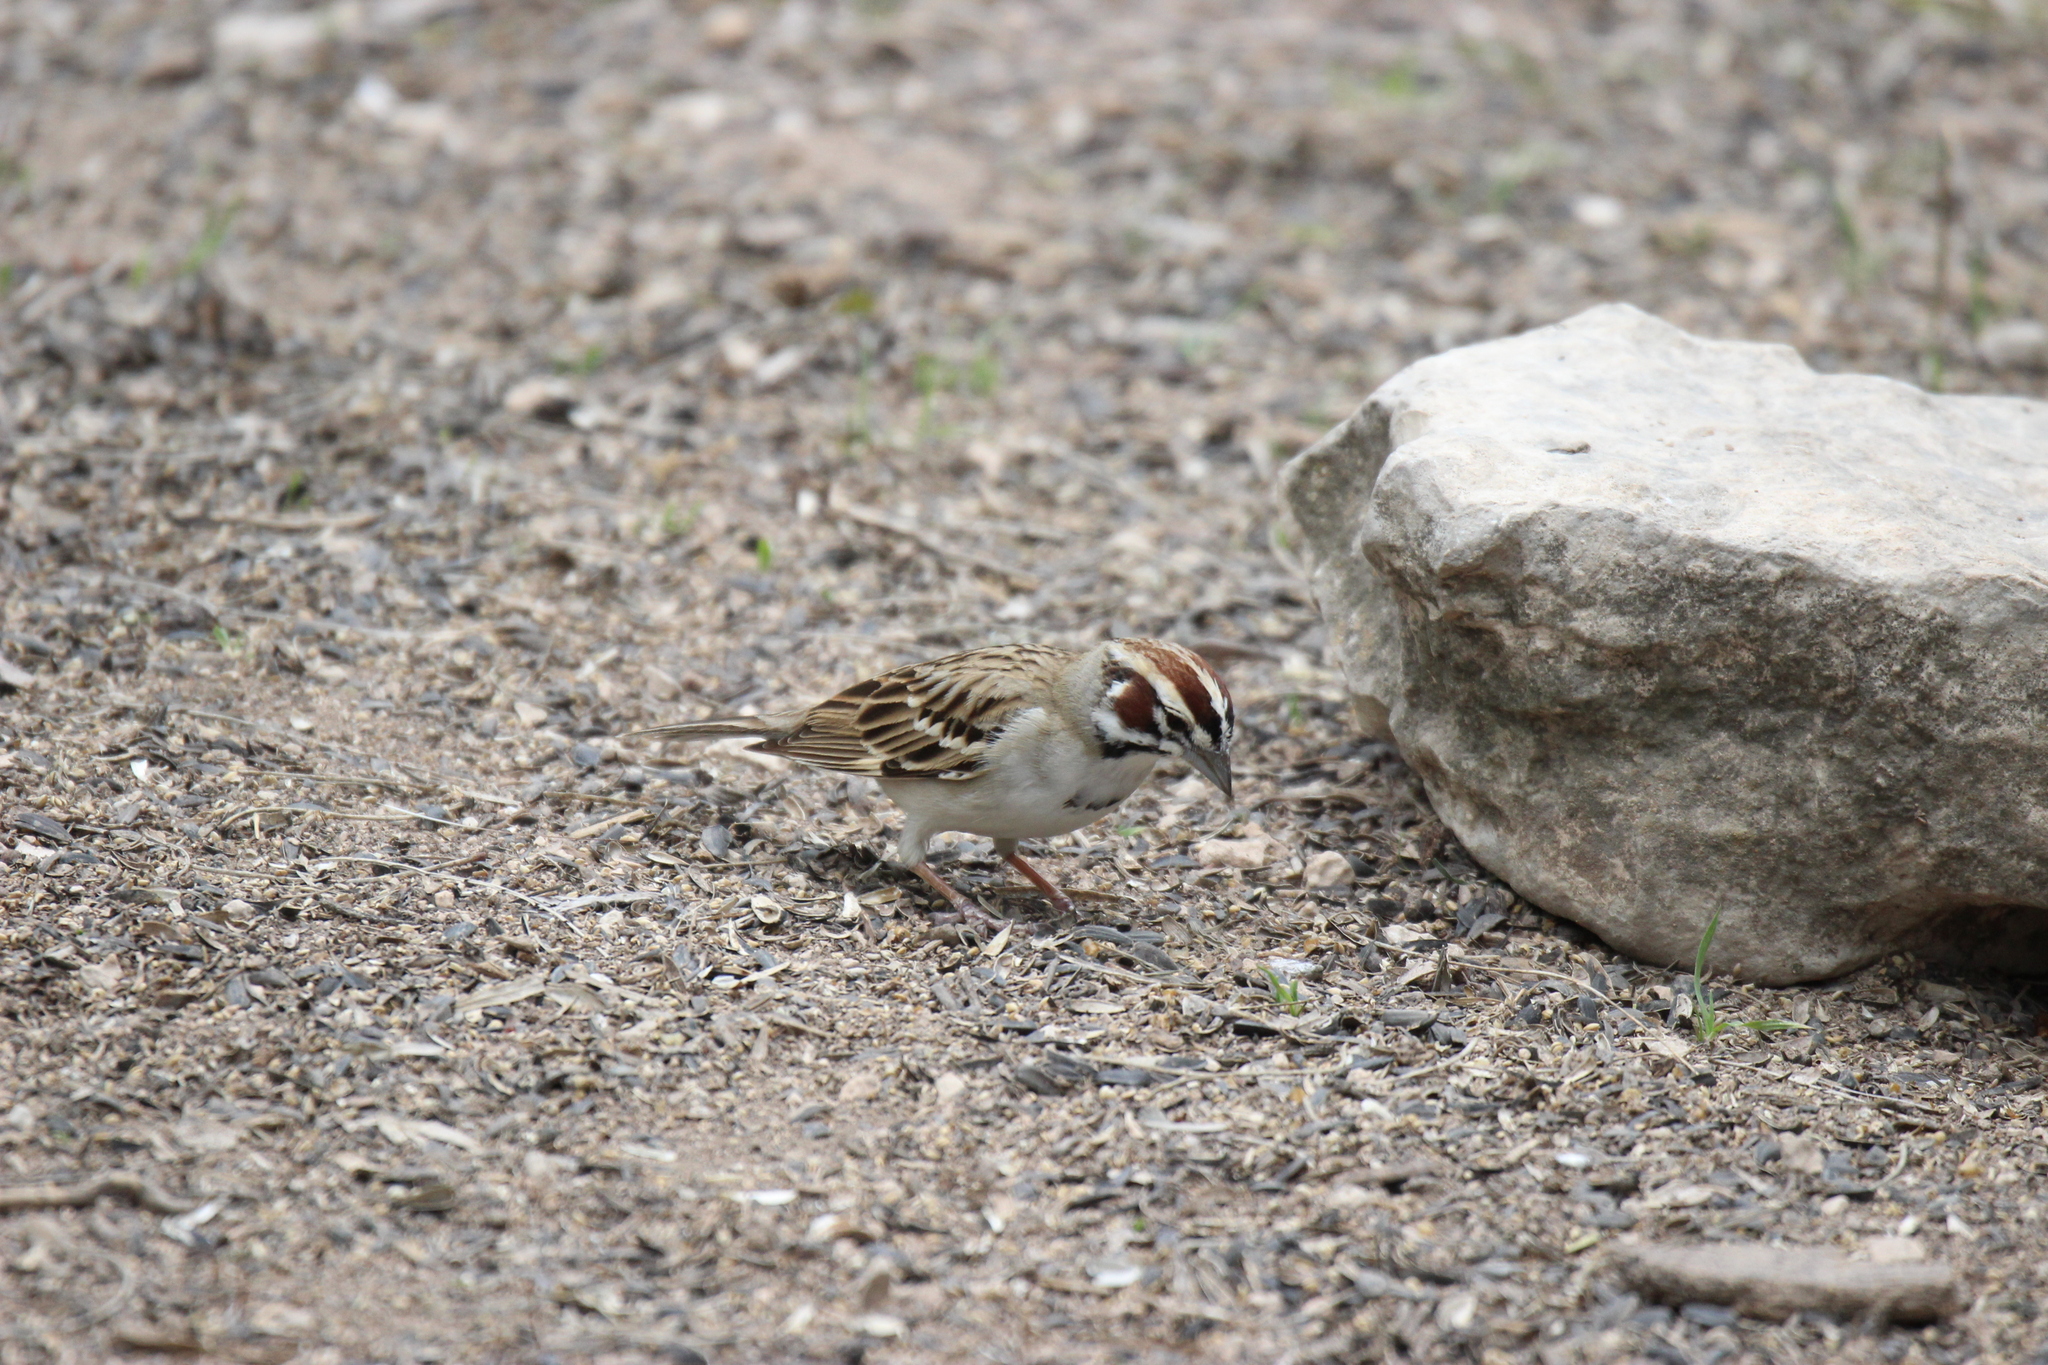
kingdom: Animalia
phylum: Chordata
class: Aves
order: Passeriformes
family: Passerellidae
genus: Chondestes
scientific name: Chondestes grammacus
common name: Lark sparrow
